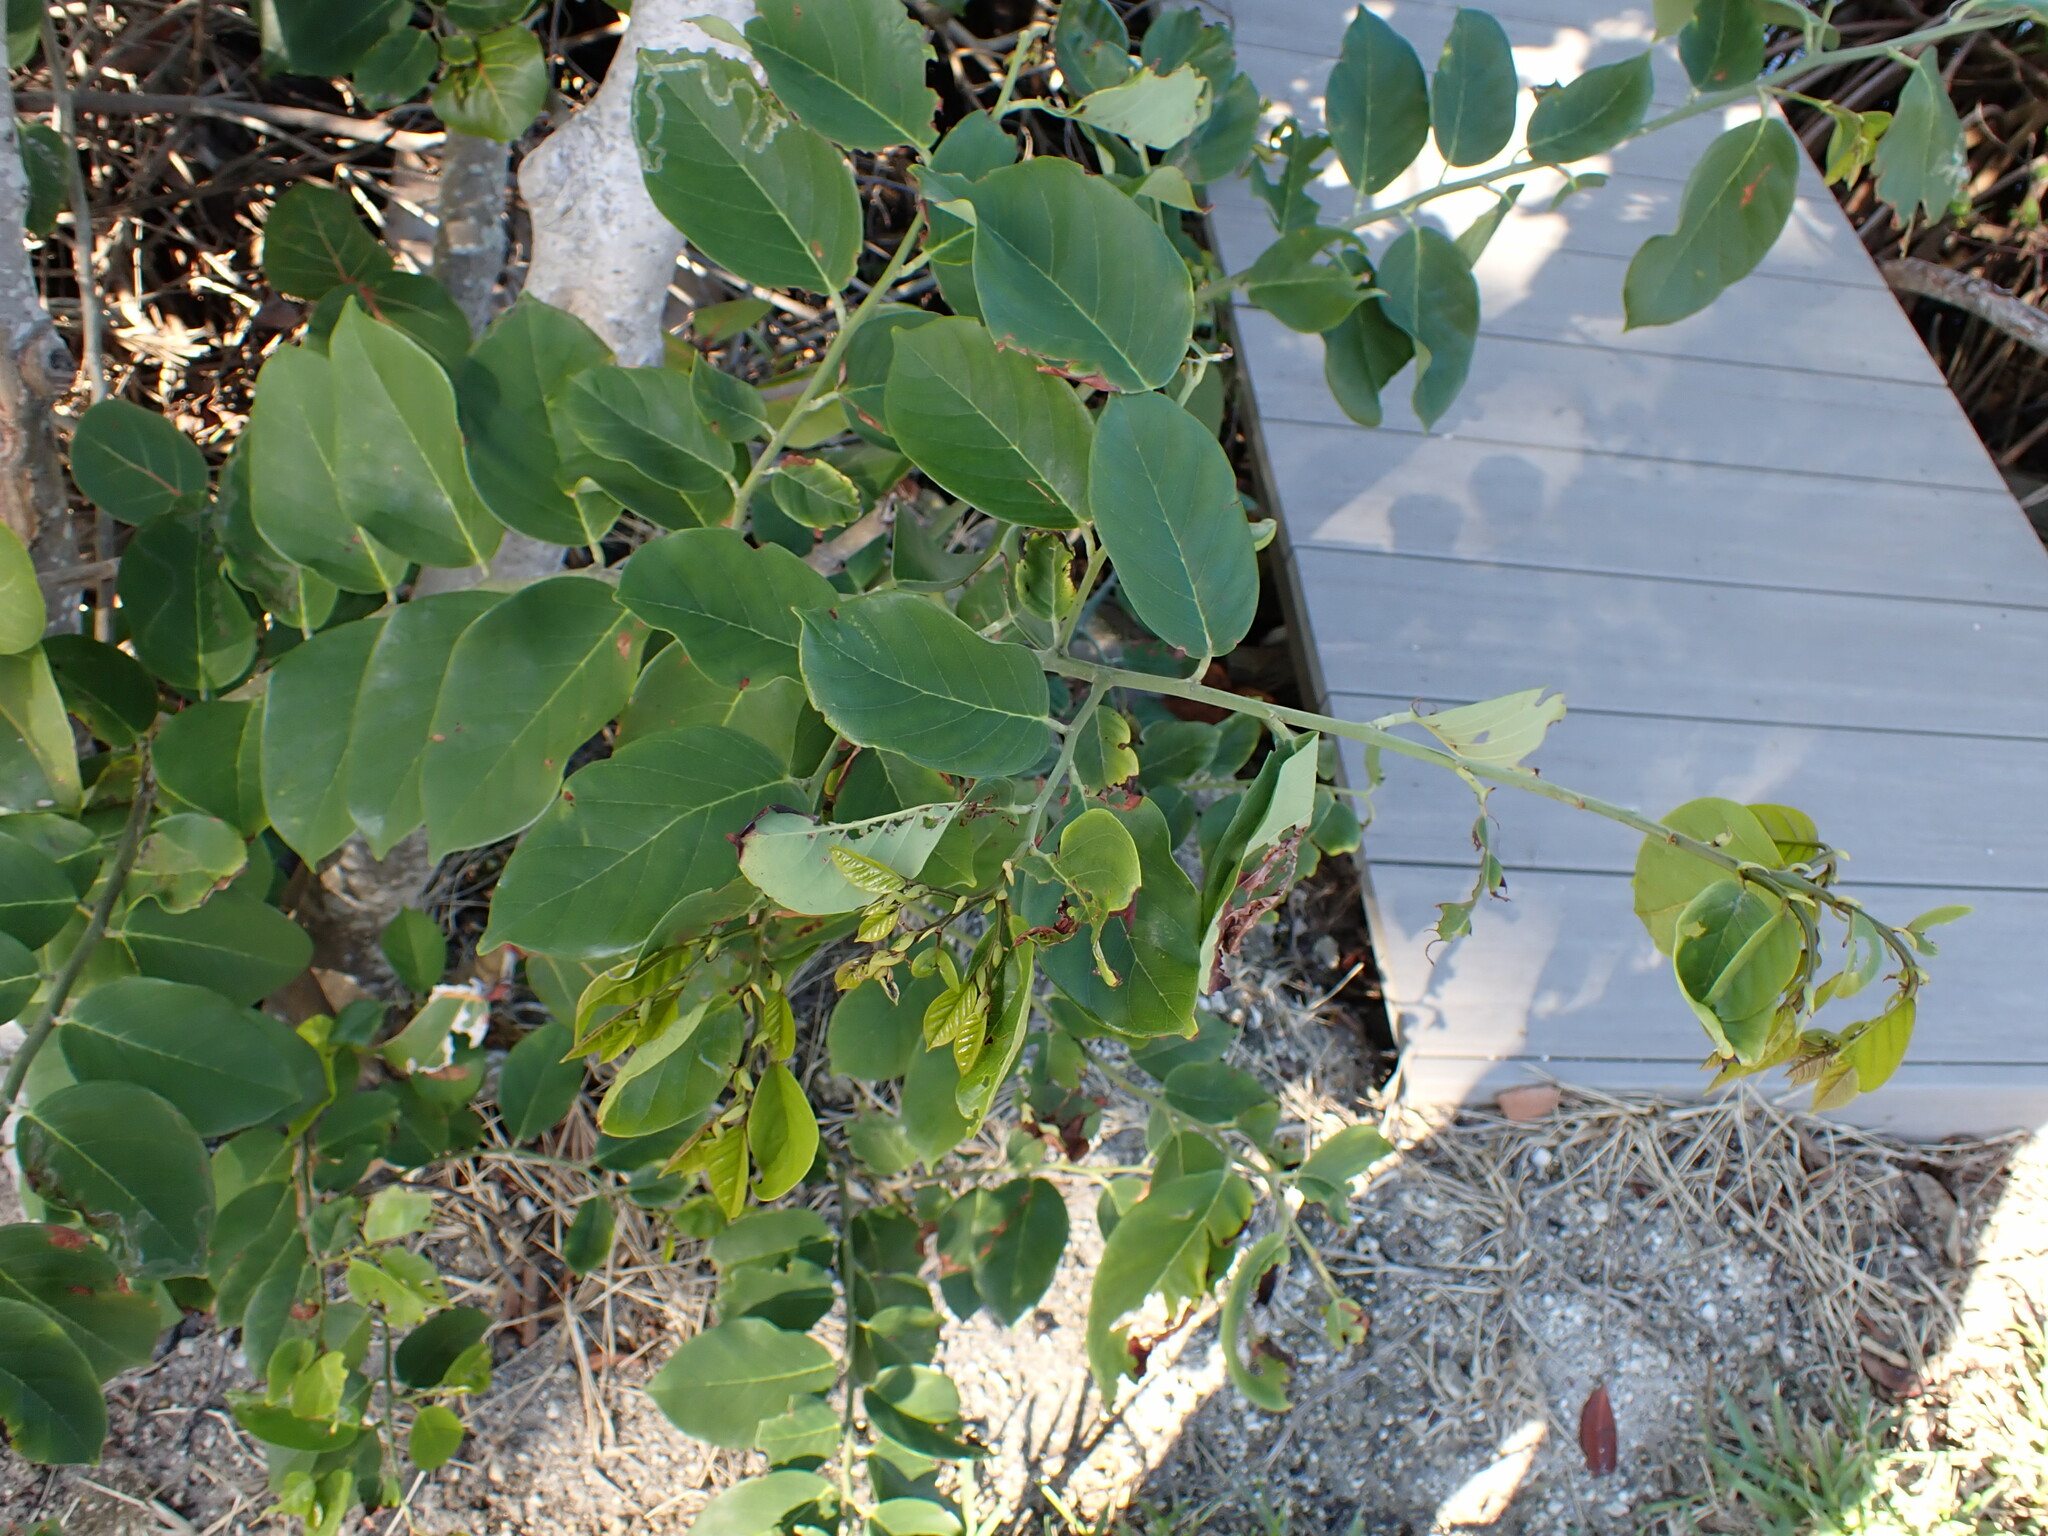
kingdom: Plantae
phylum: Tracheophyta
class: Magnoliopsida
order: Fabales
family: Fabaceae
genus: Dalbergia
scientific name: Dalbergia ecastaphyllum
